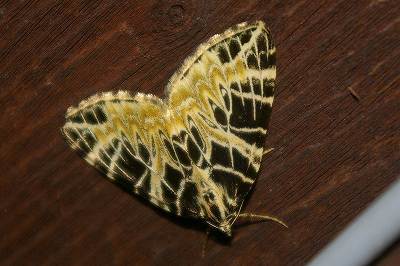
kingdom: Animalia
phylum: Arthropoda
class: Insecta
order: Lepidoptera
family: Geometridae
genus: Eustroma
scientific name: Eustroma japonicum
